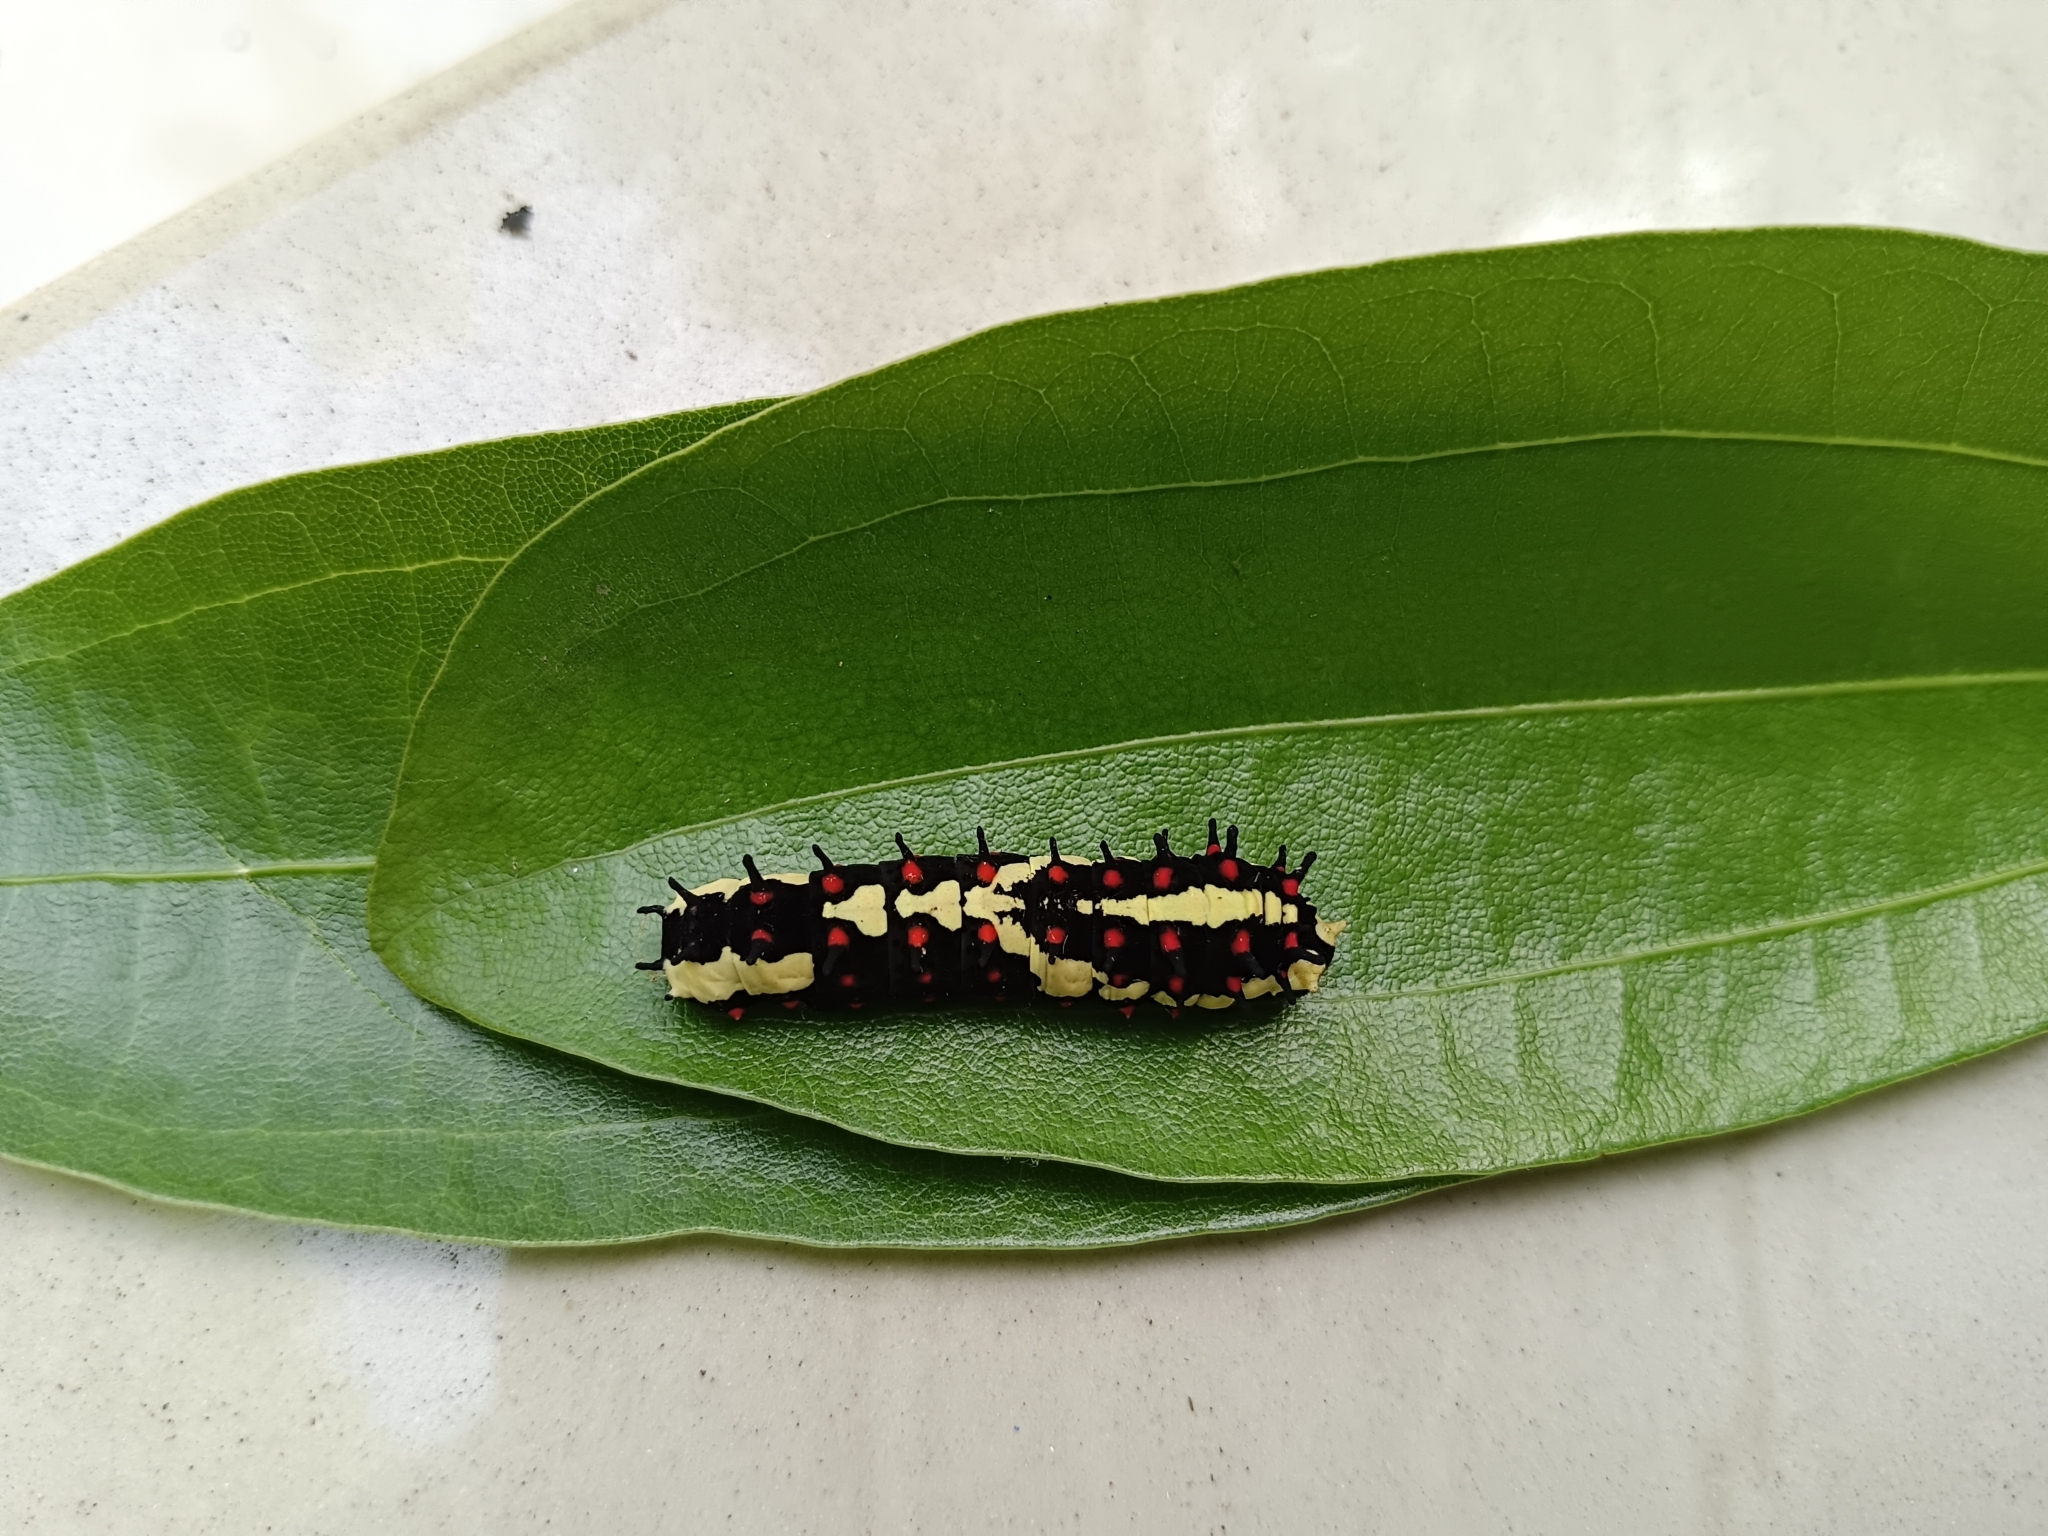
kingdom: Animalia
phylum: Arthropoda
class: Insecta
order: Lepidoptera
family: Papilionidae
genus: Chilasa
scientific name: Chilasa clytia
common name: Common mime
